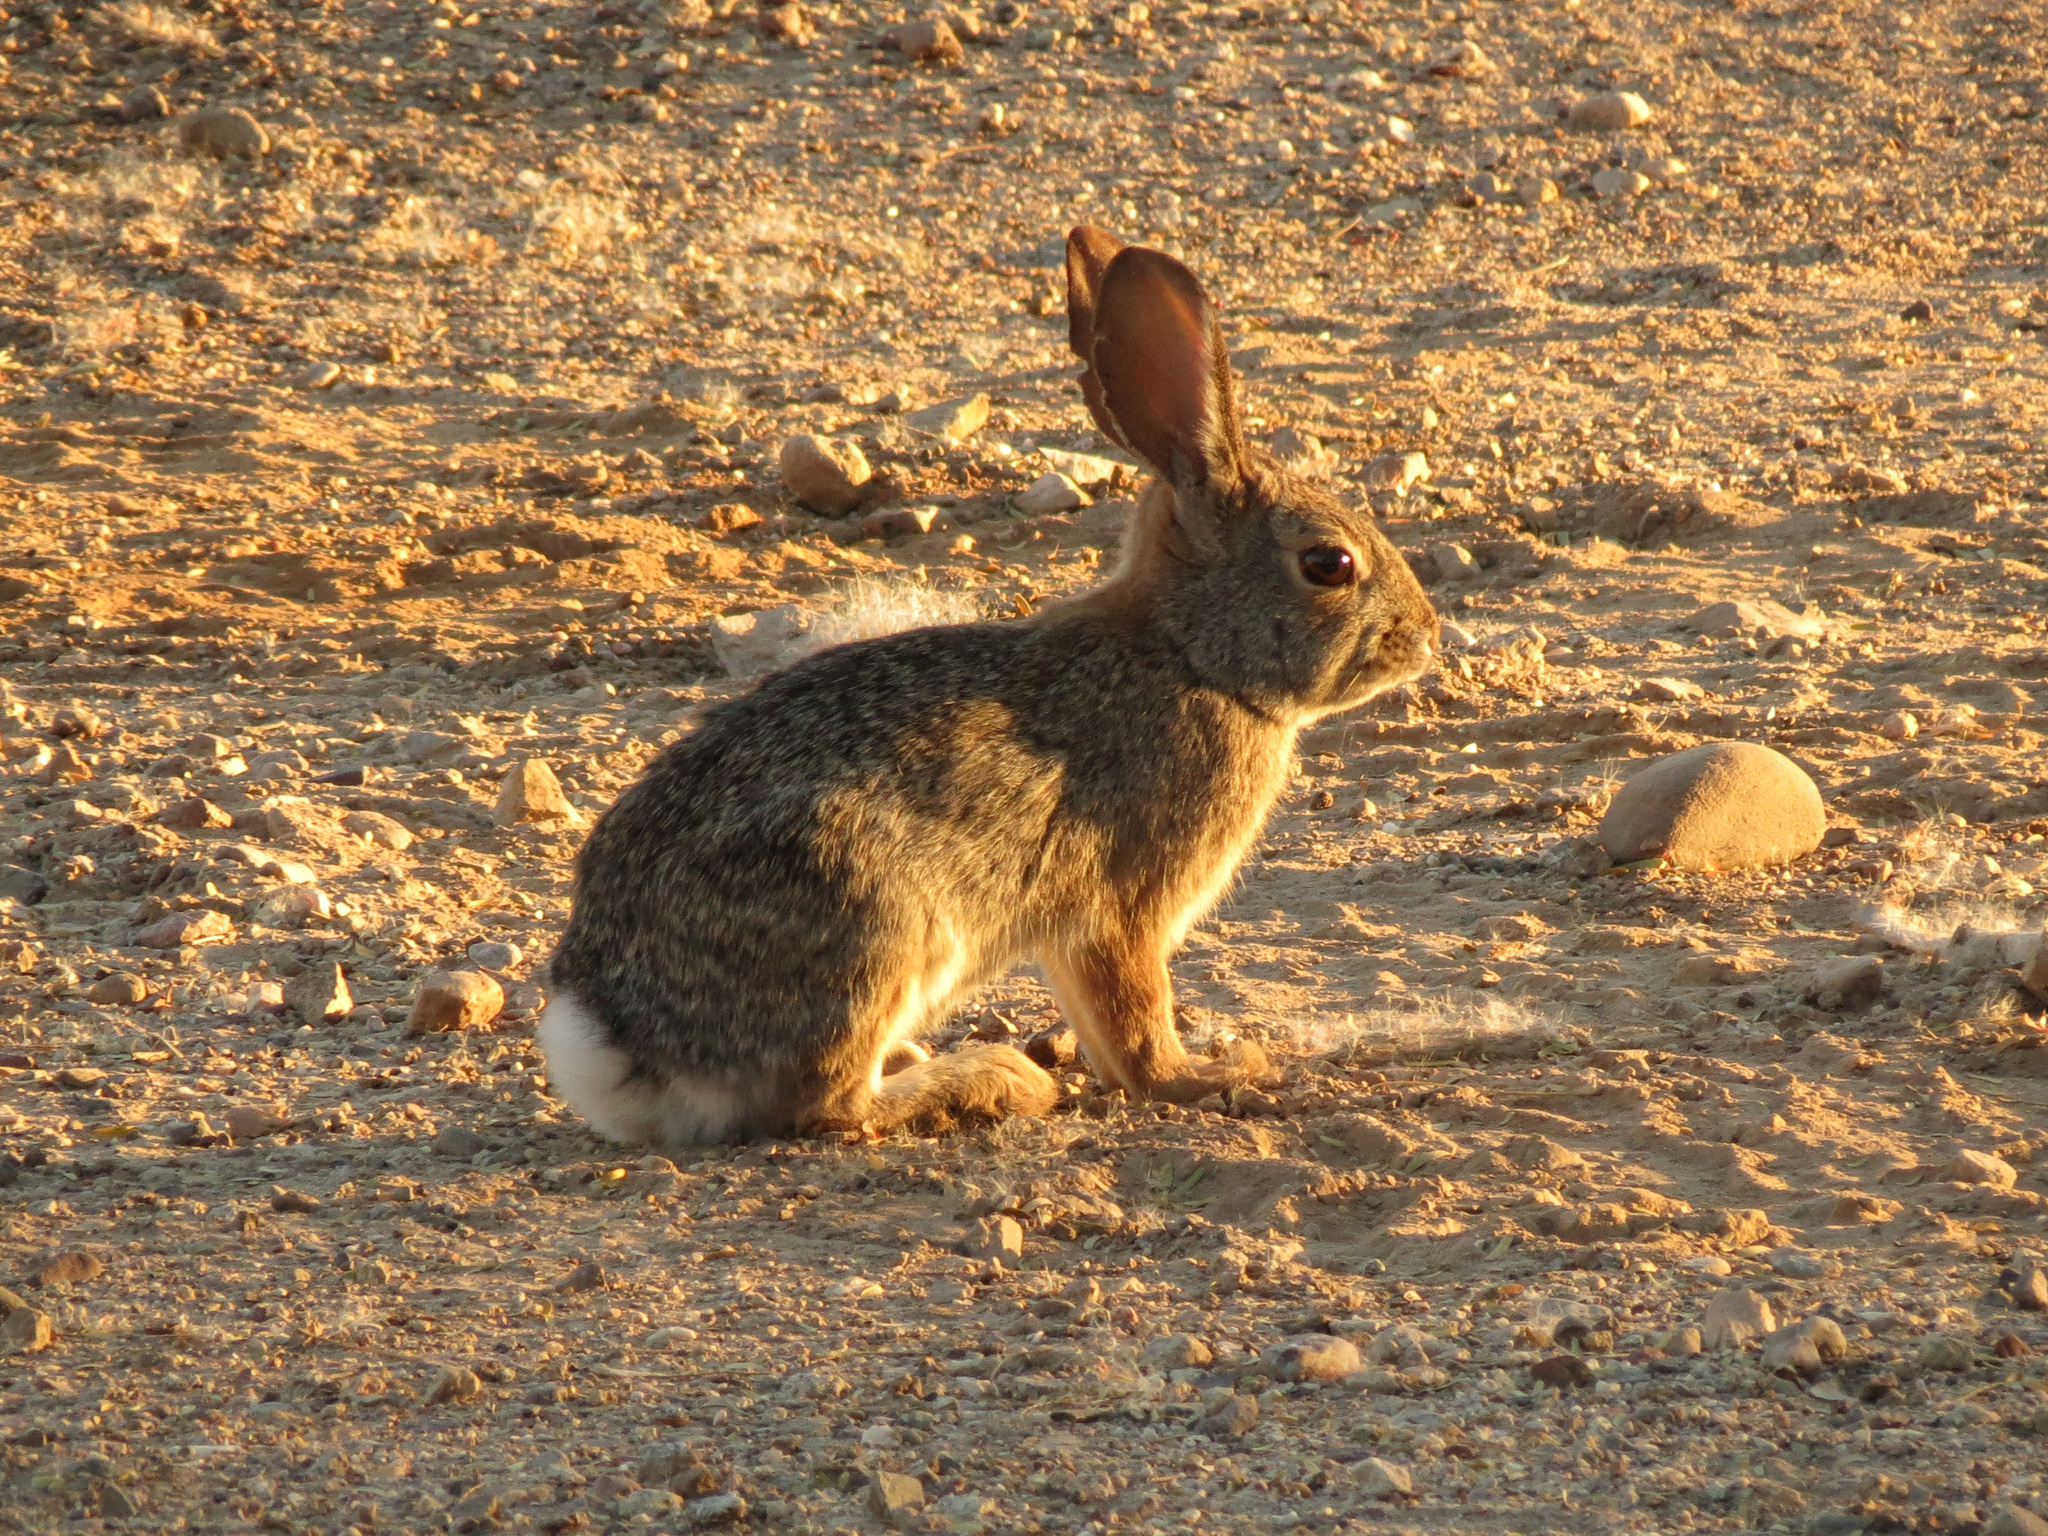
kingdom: Animalia
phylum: Chordata
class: Mammalia
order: Lagomorpha
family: Leporidae
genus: Sylvilagus
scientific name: Sylvilagus audubonii
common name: Desert cottontail
